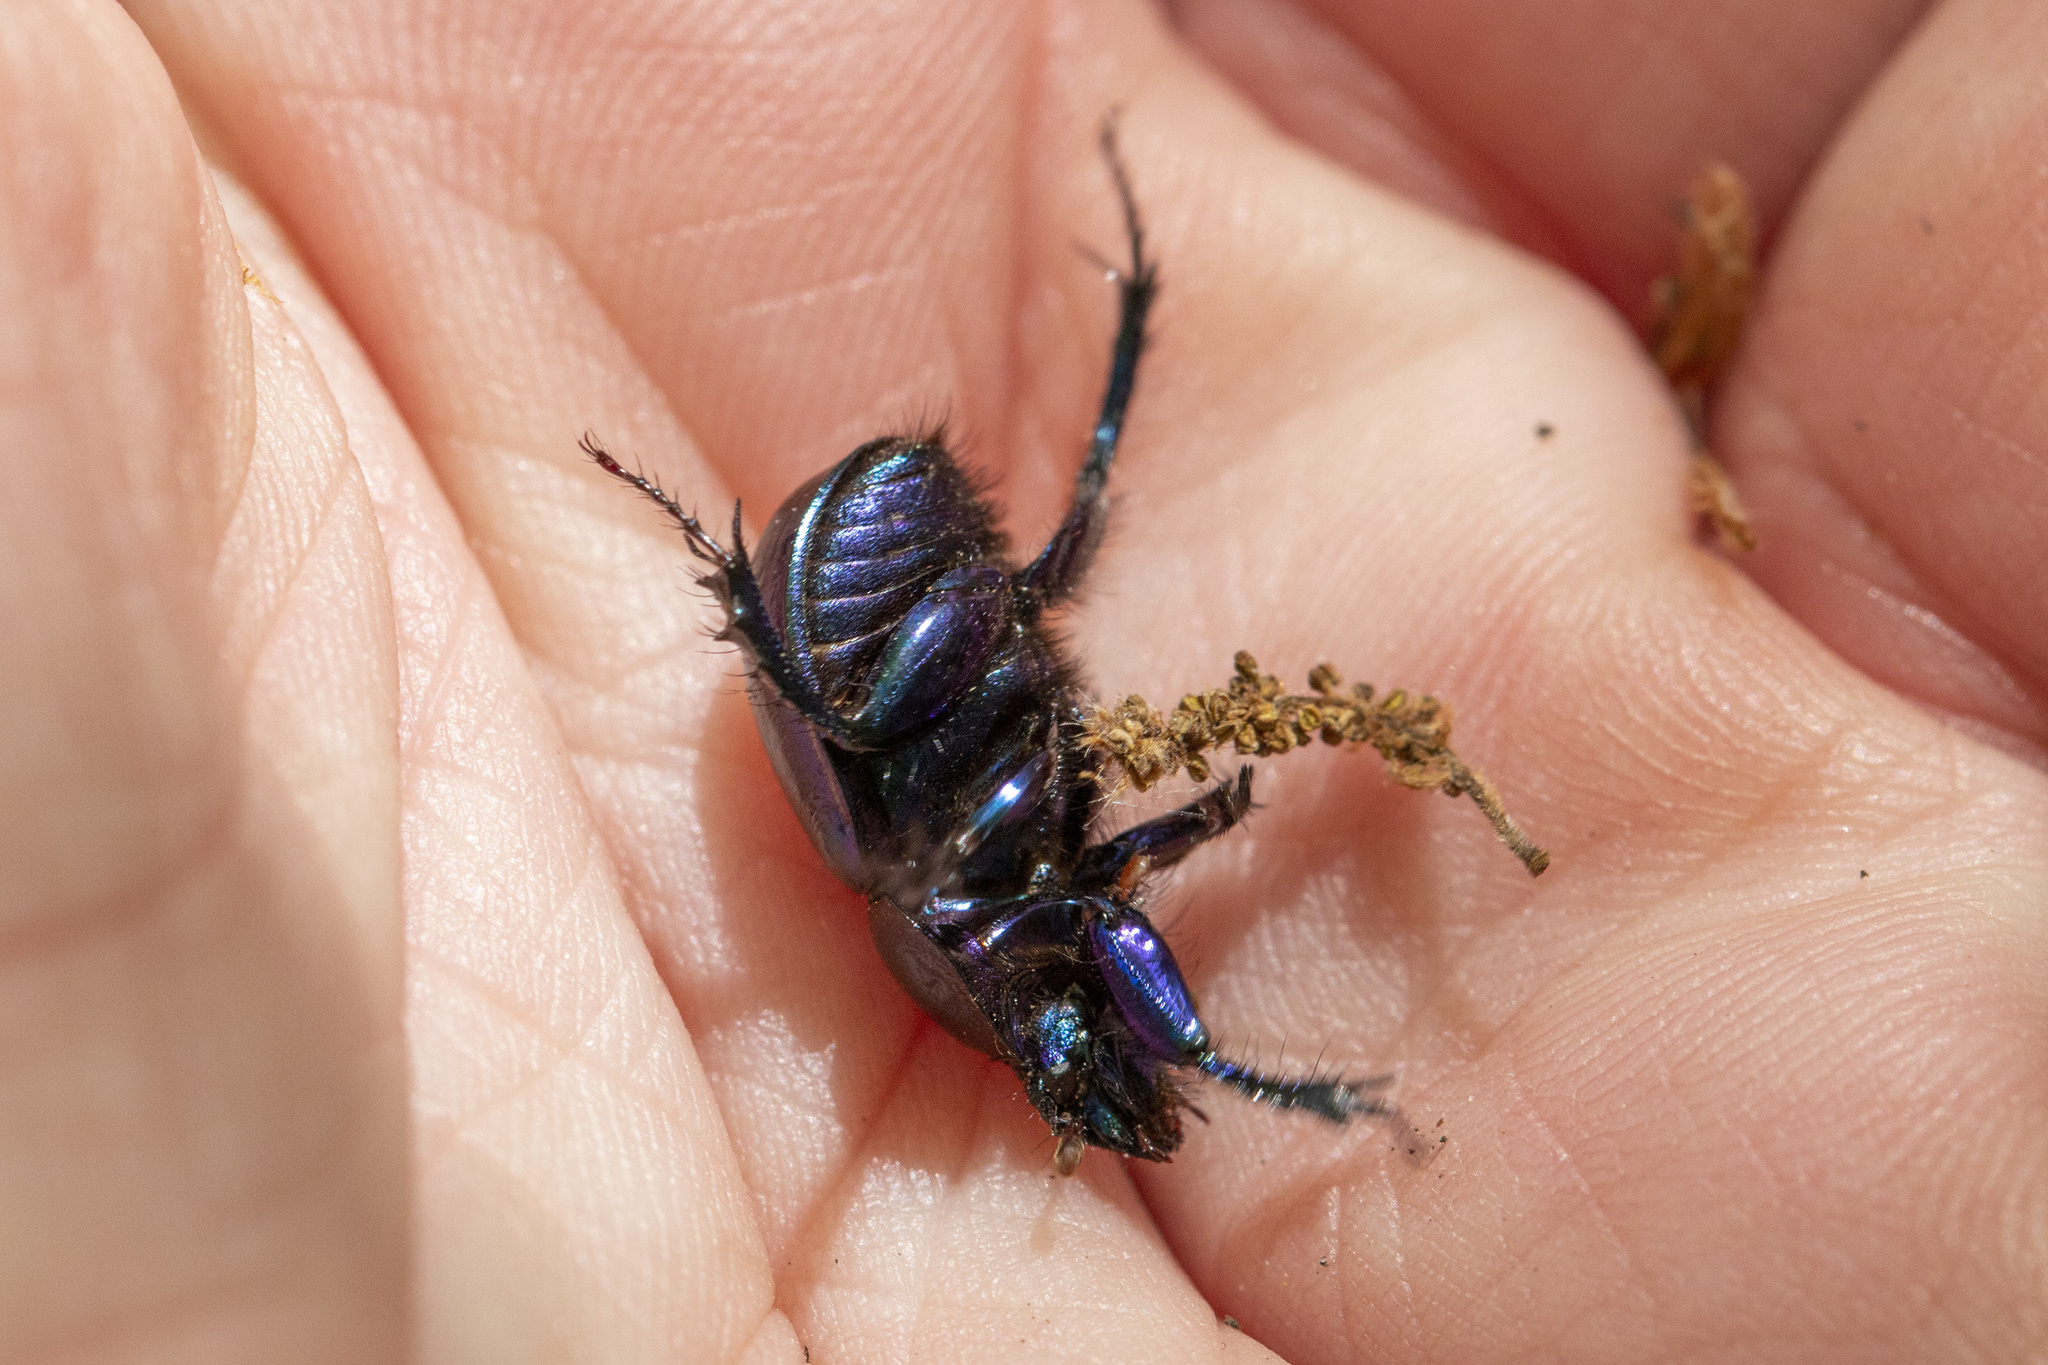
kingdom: Animalia
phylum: Arthropoda
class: Insecta
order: Coleoptera
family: Geotrupidae
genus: Anoplotrupes
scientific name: Anoplotrupes stercorosus
